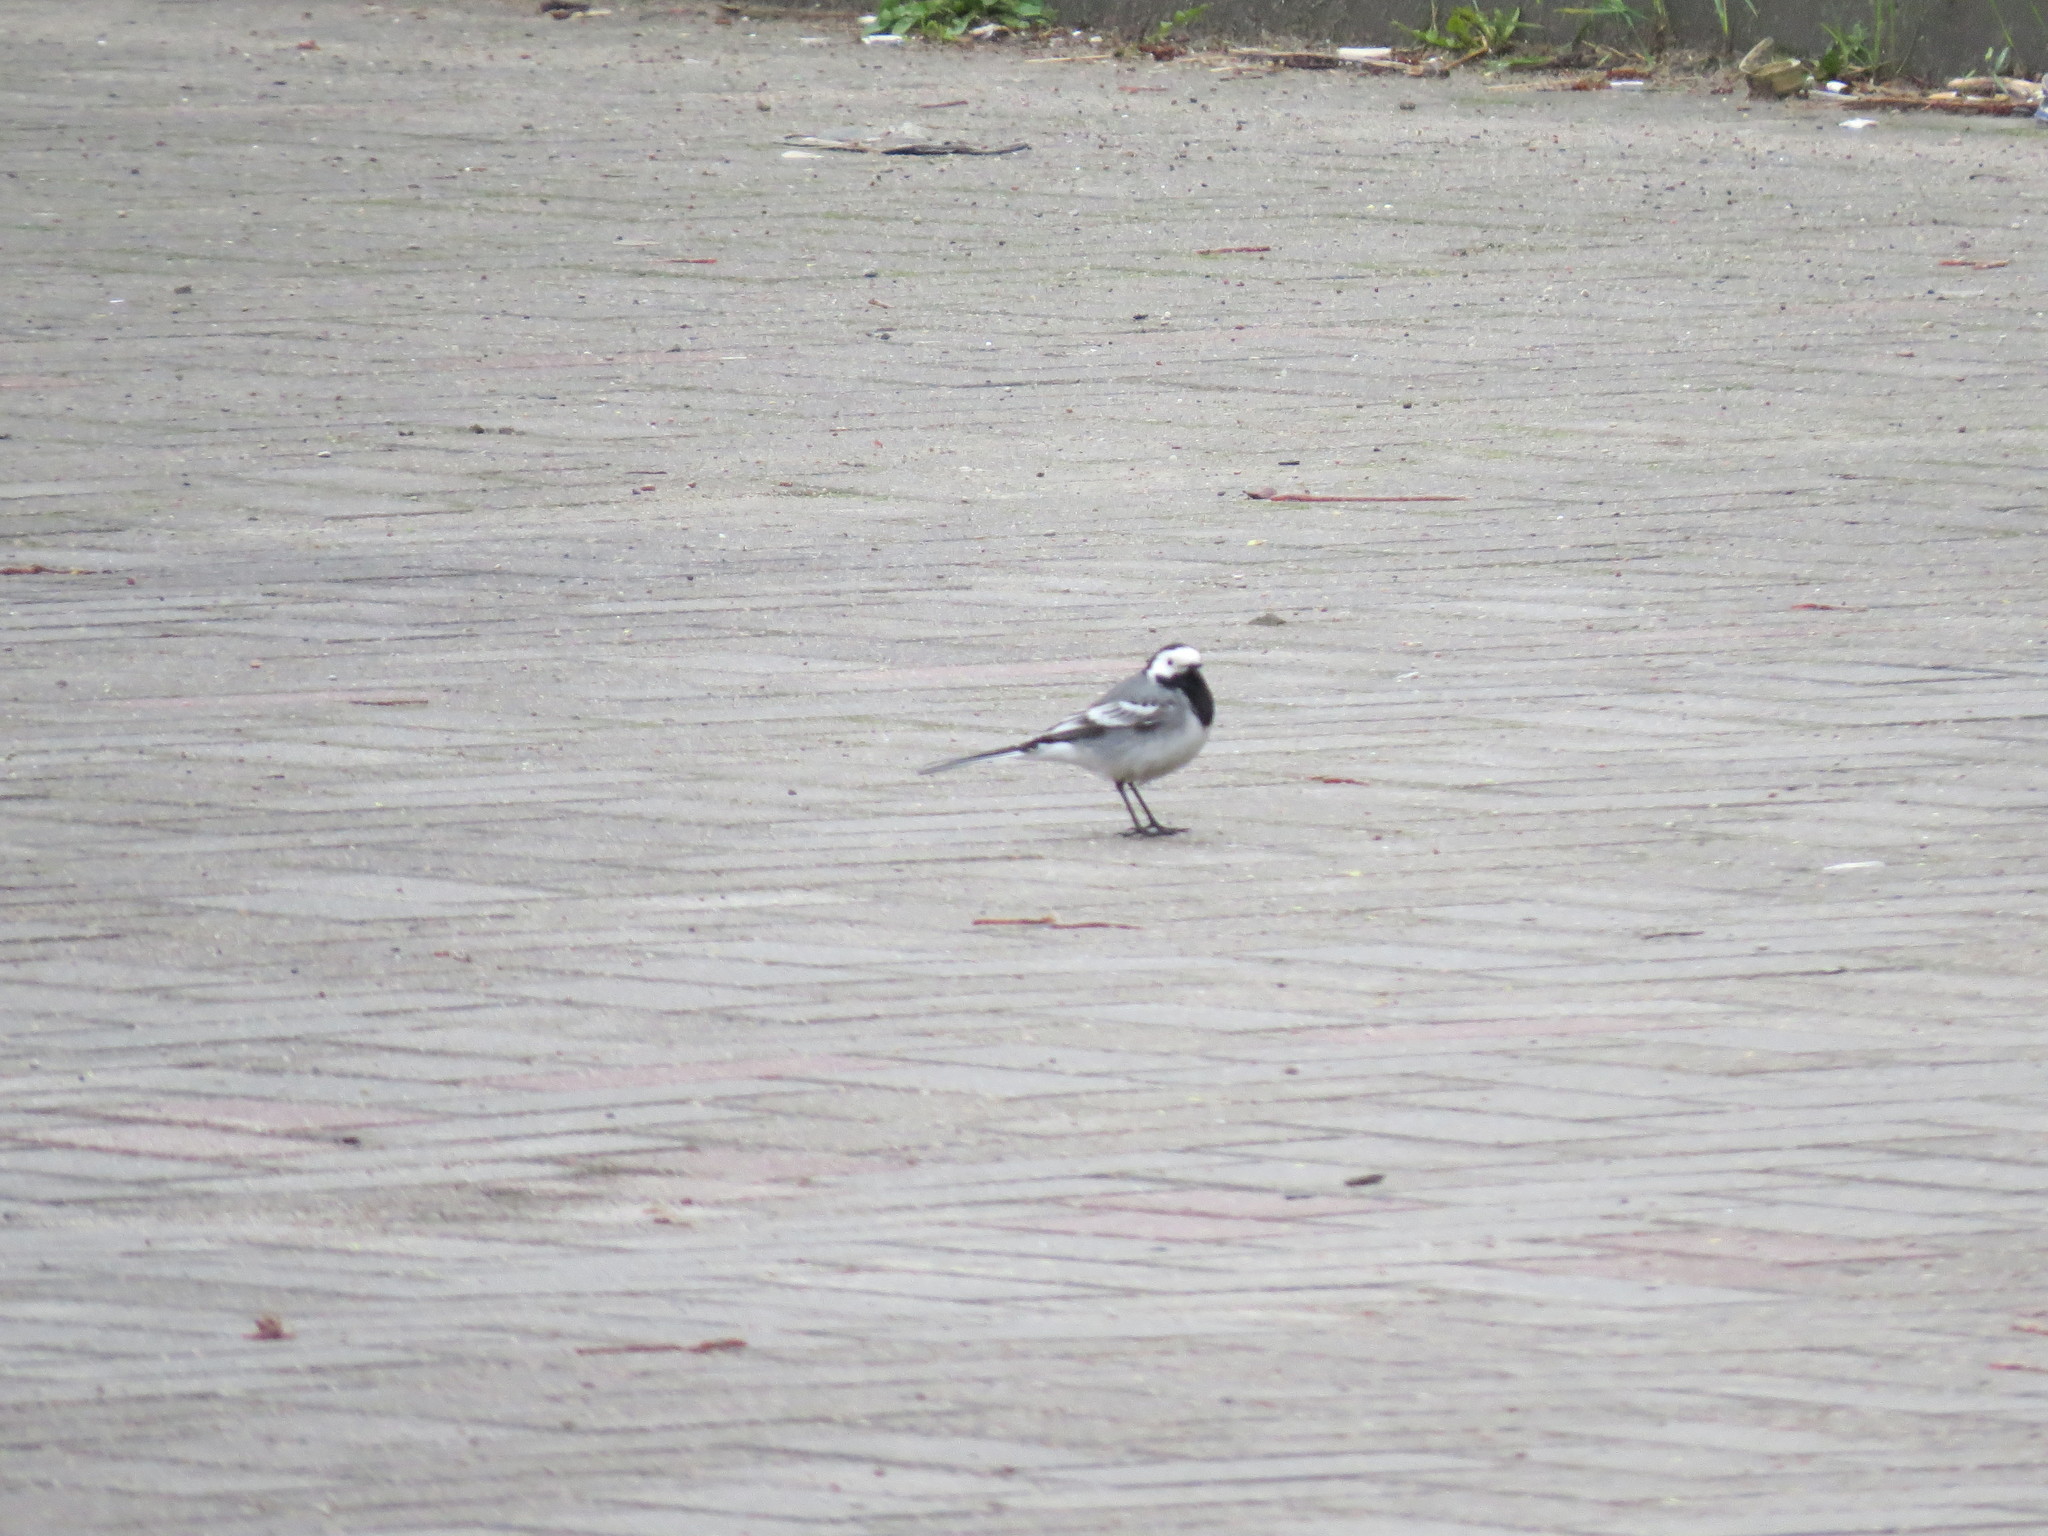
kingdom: Animalia
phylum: Chordata
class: Aves
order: Passeriformes
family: Motacillidae
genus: Motacilla
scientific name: Motacilla alba
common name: White wagtail
